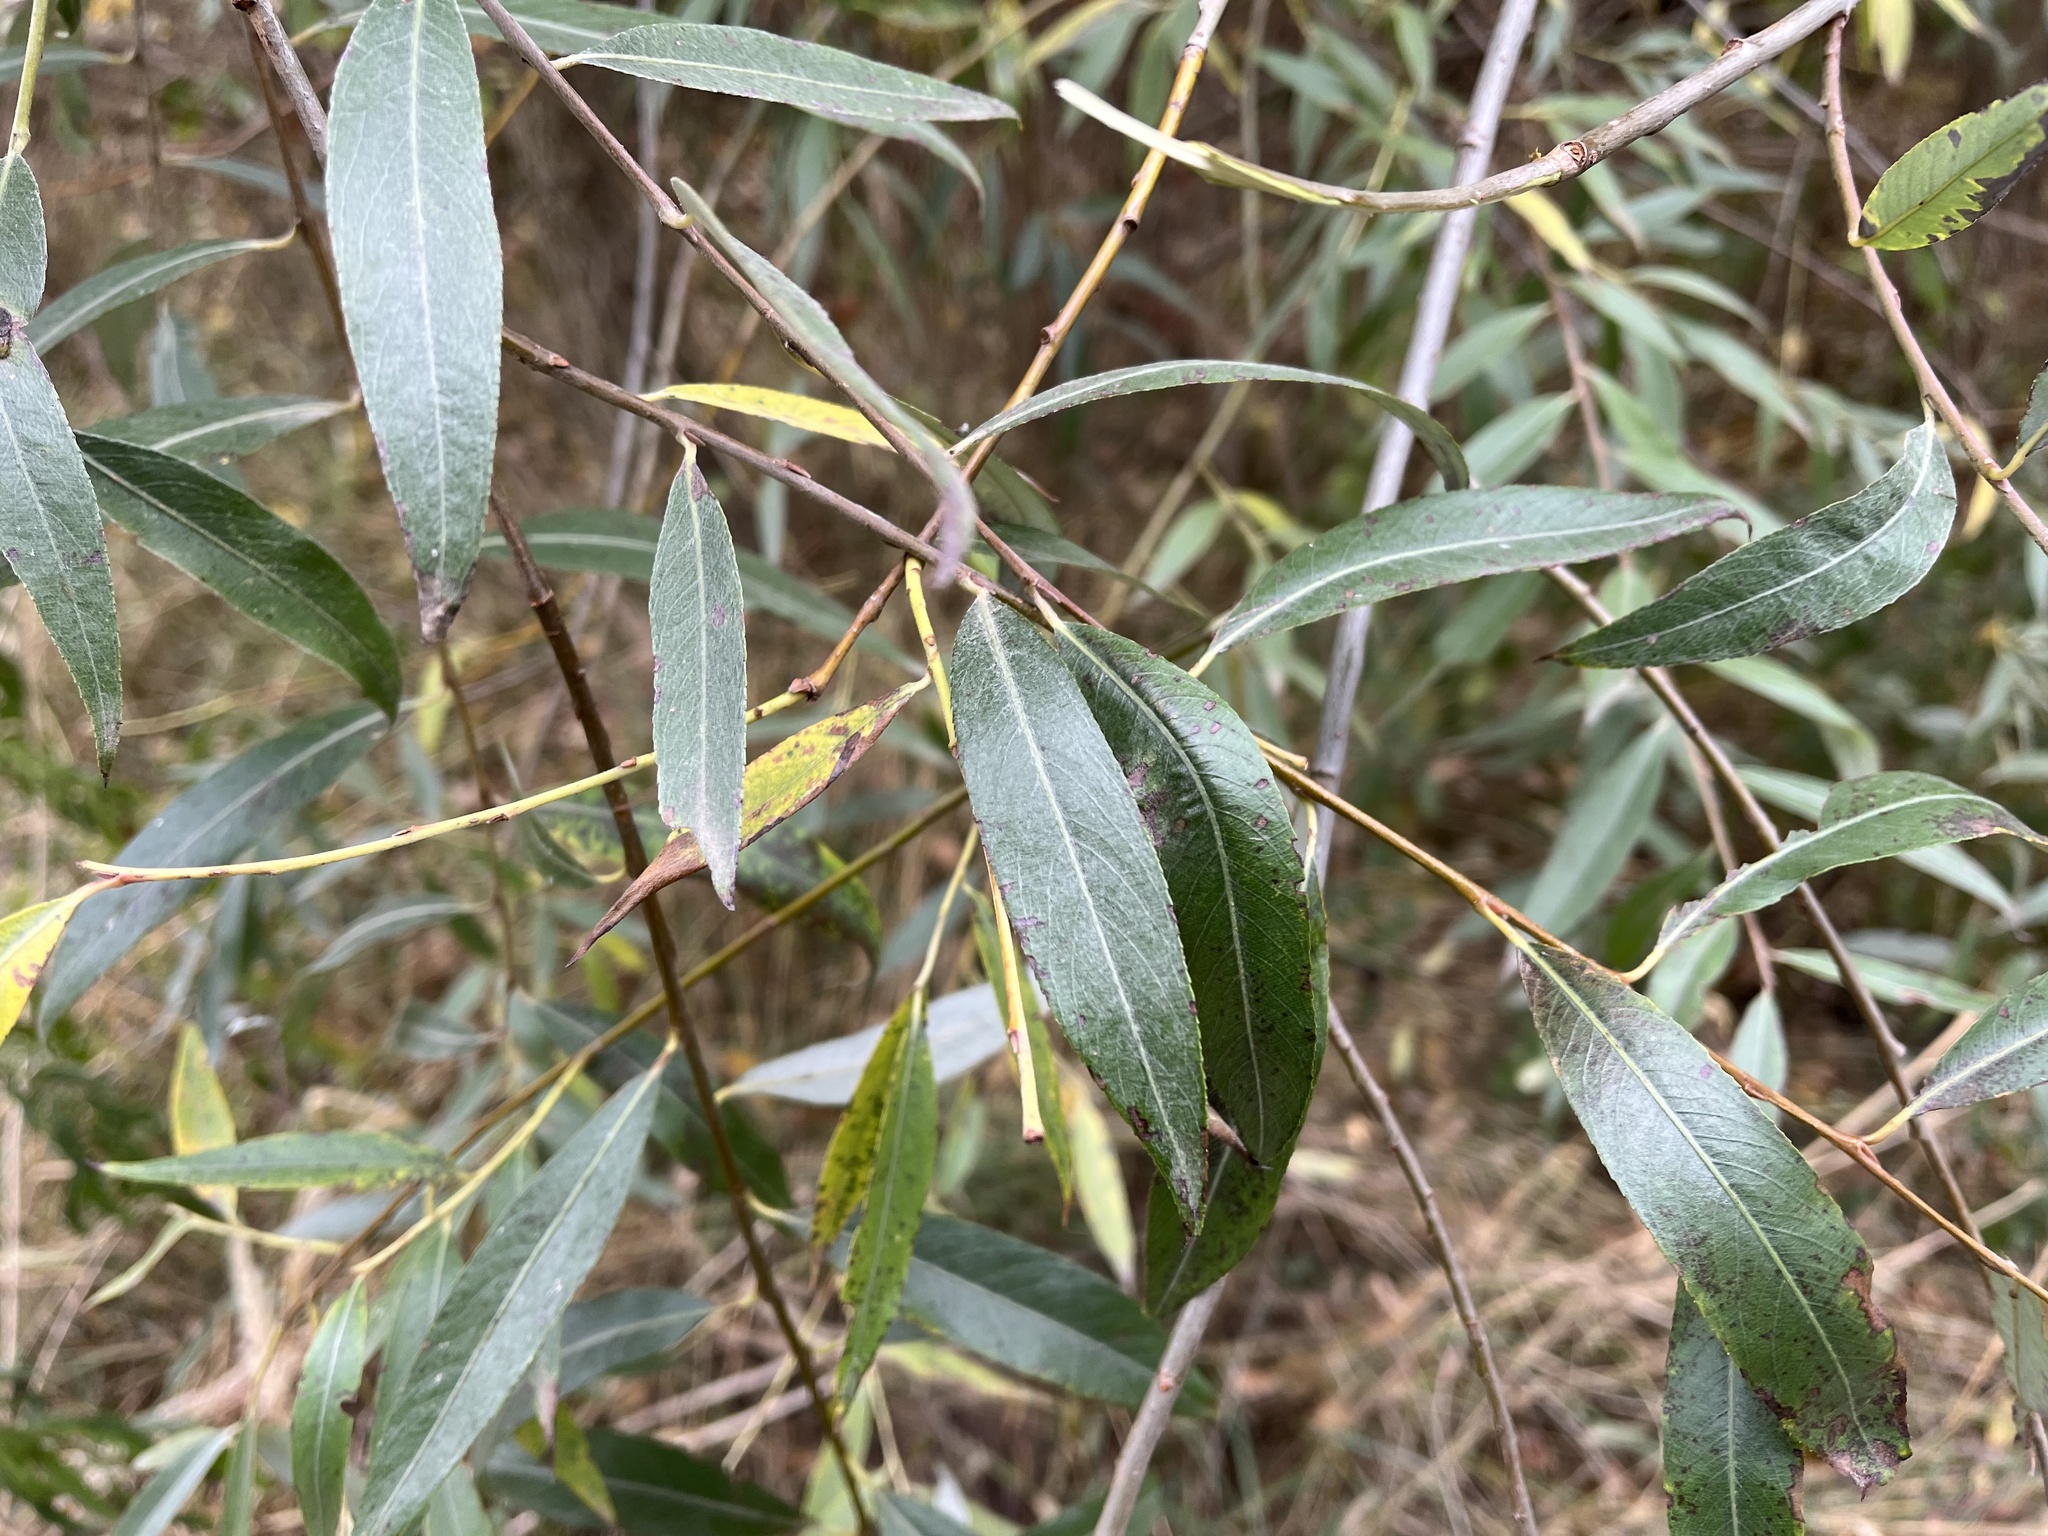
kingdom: Plantae
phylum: Tracheophyta
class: Magnoliopsida
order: Malpighiales
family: Salicaceae
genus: Salix
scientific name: Salix alba
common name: White willow
